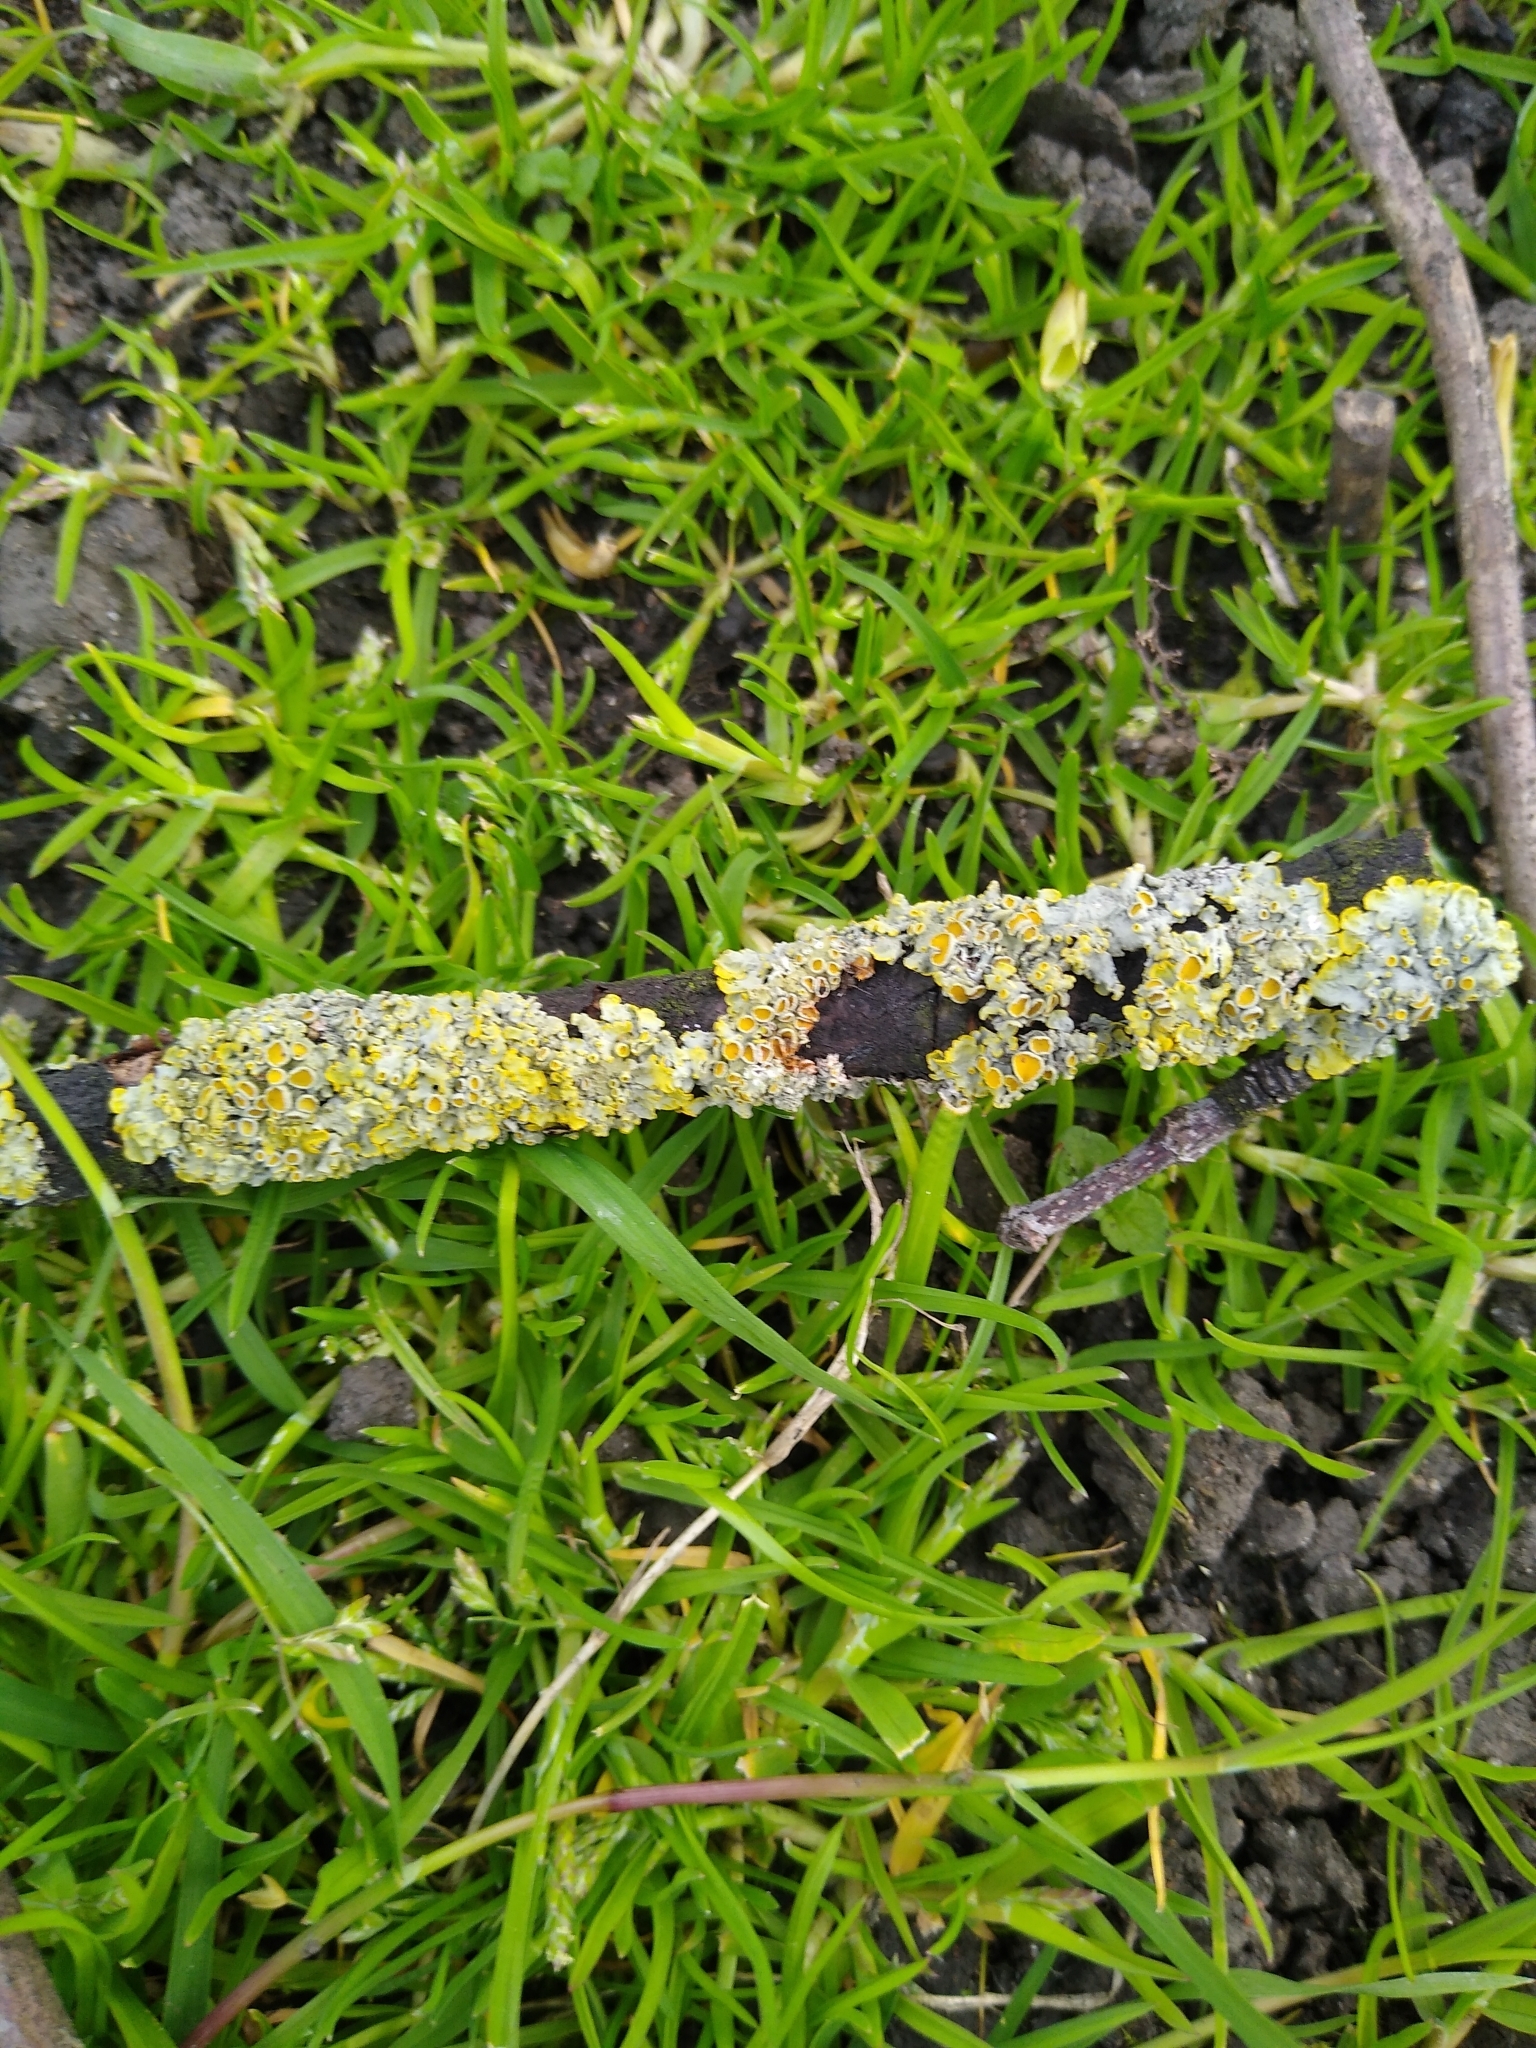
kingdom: Fungi
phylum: Ascomycota
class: Lecanoromycetes
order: Teloschistales
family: Teloschistaceae
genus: Xanthoria
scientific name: Xanthoria parietina
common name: Common orange lichen
